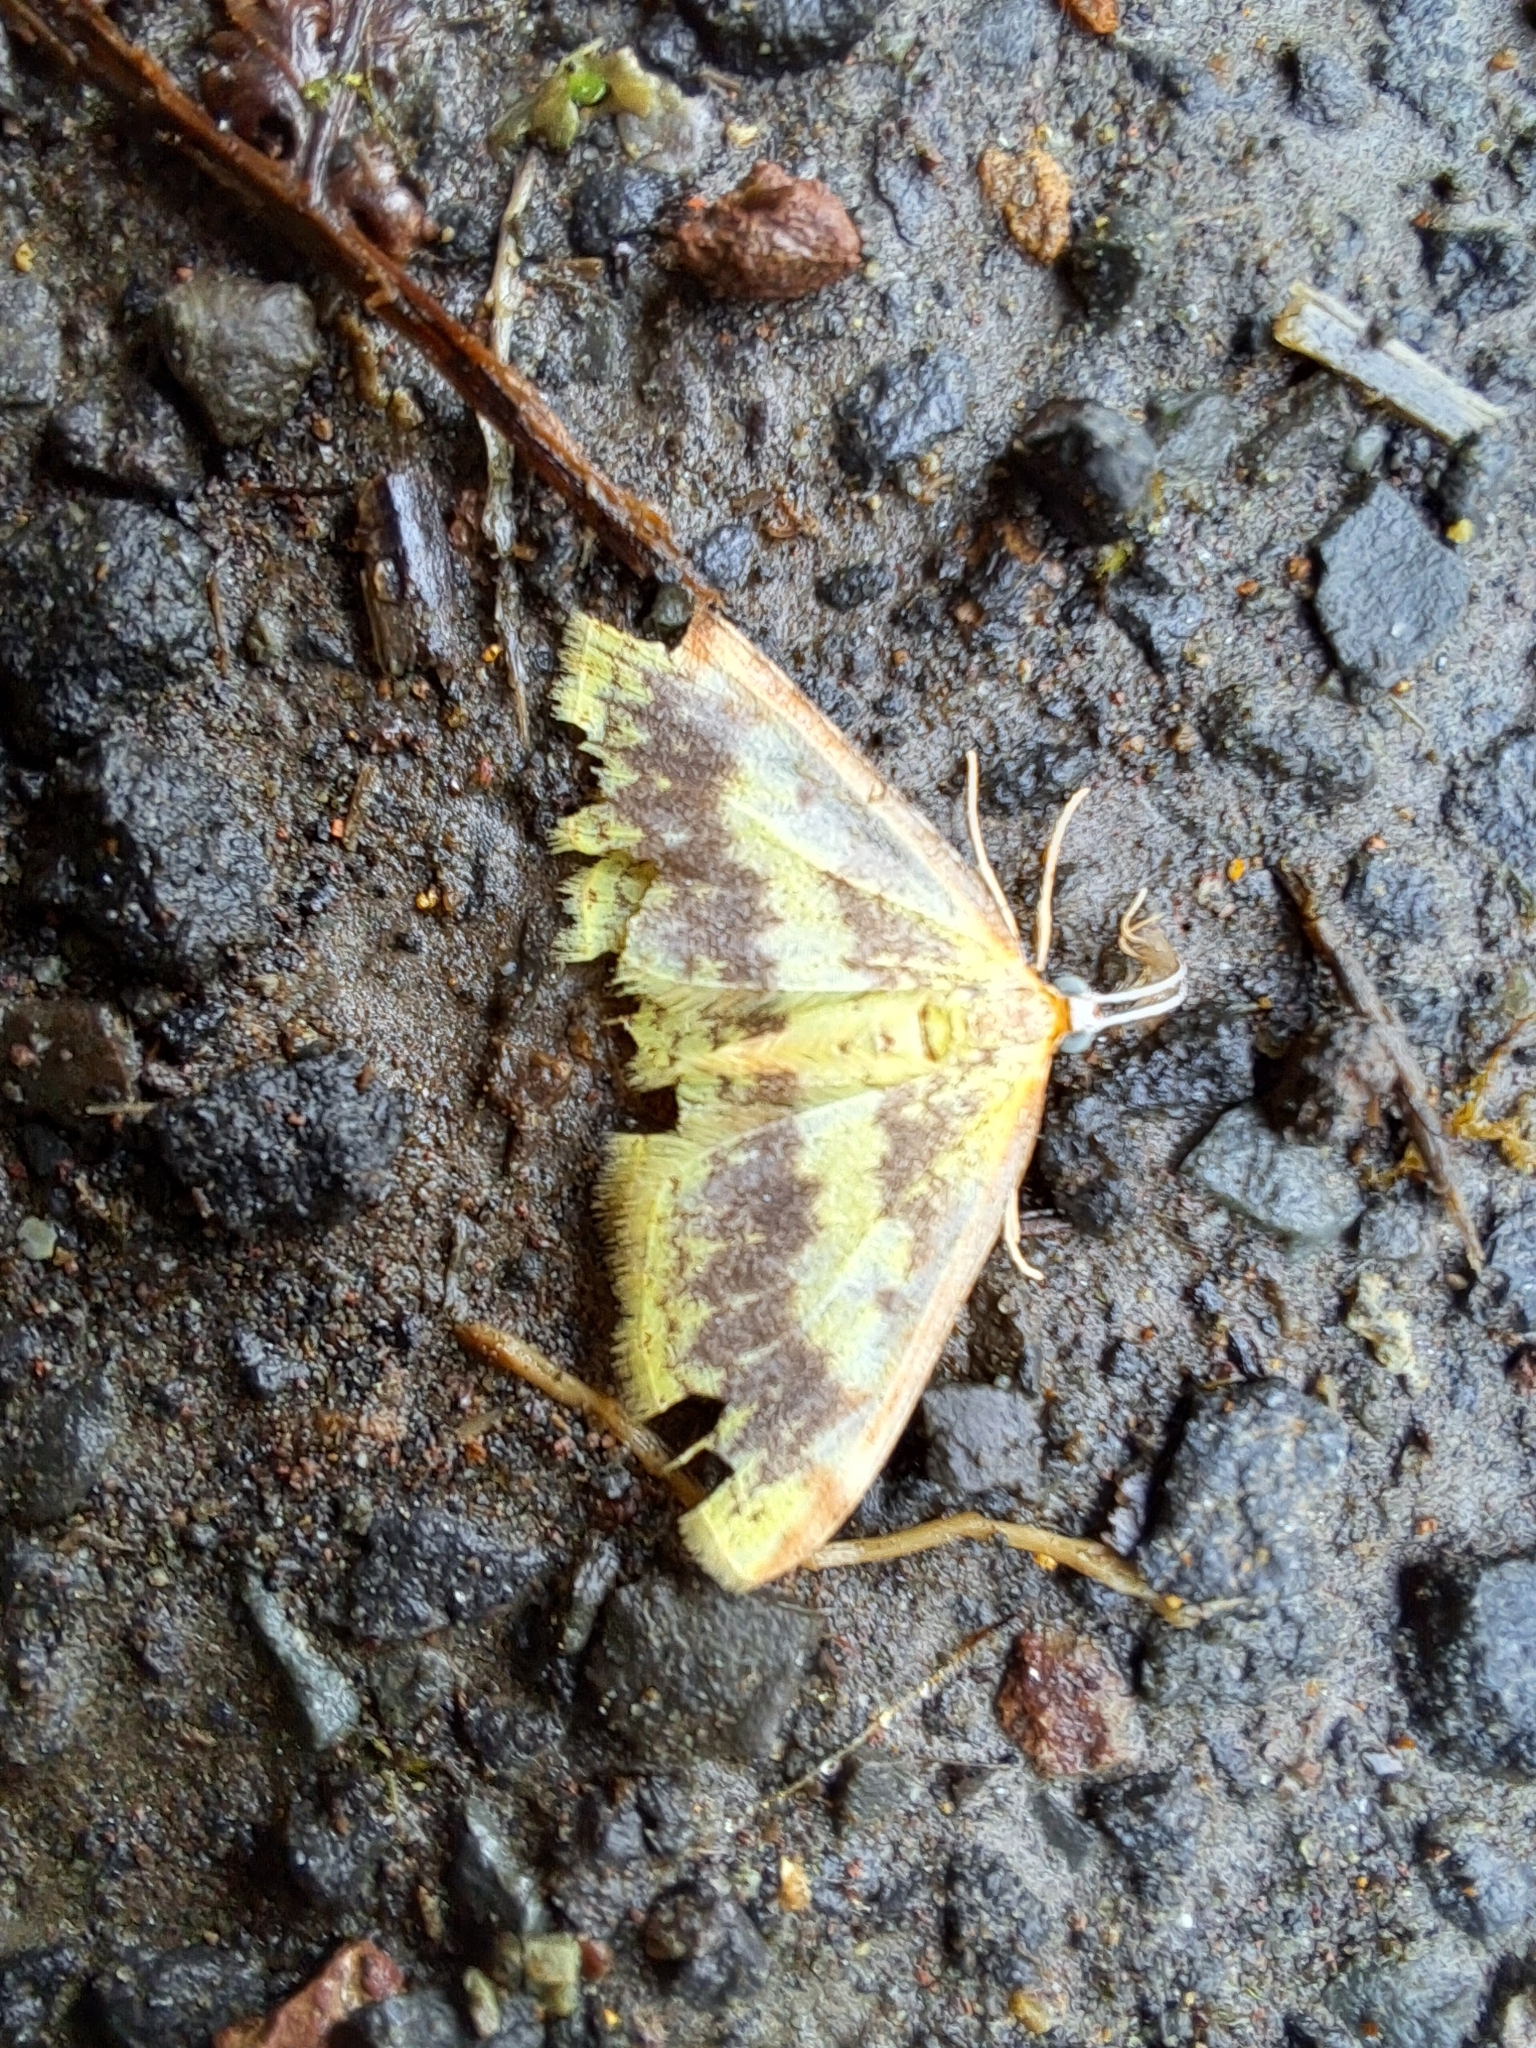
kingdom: Animalia
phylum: Arthropoda
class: Insecta
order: Lepidoptera
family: Geometridae
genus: Epiphryne
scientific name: Epiphryne undosata
